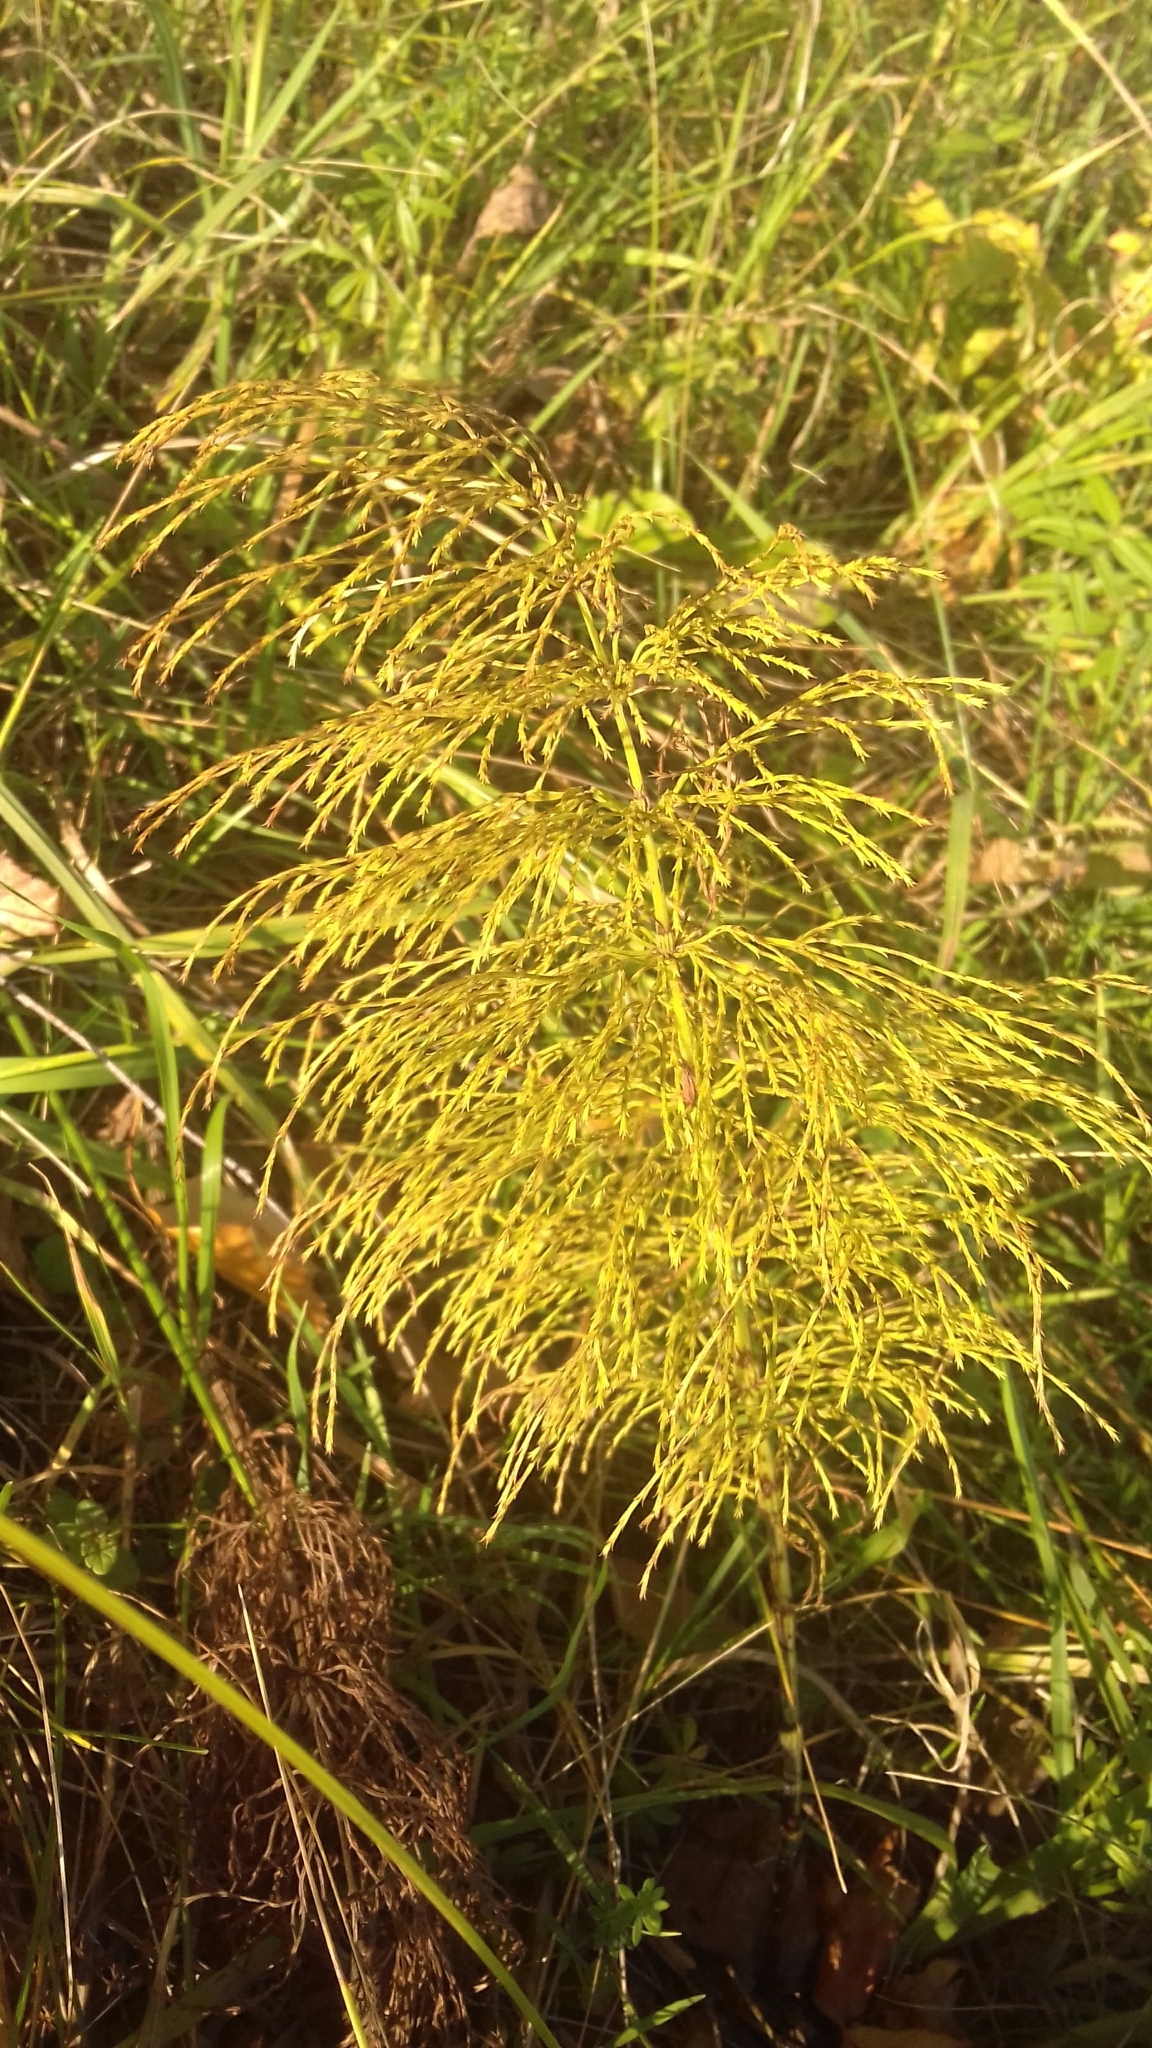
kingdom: Plantae
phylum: Tracheophyta
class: Polypodiopsida
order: Equisetales
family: Equisetaceae
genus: Equisetum
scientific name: Equisetum sylvaticum
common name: Wood horsetail
